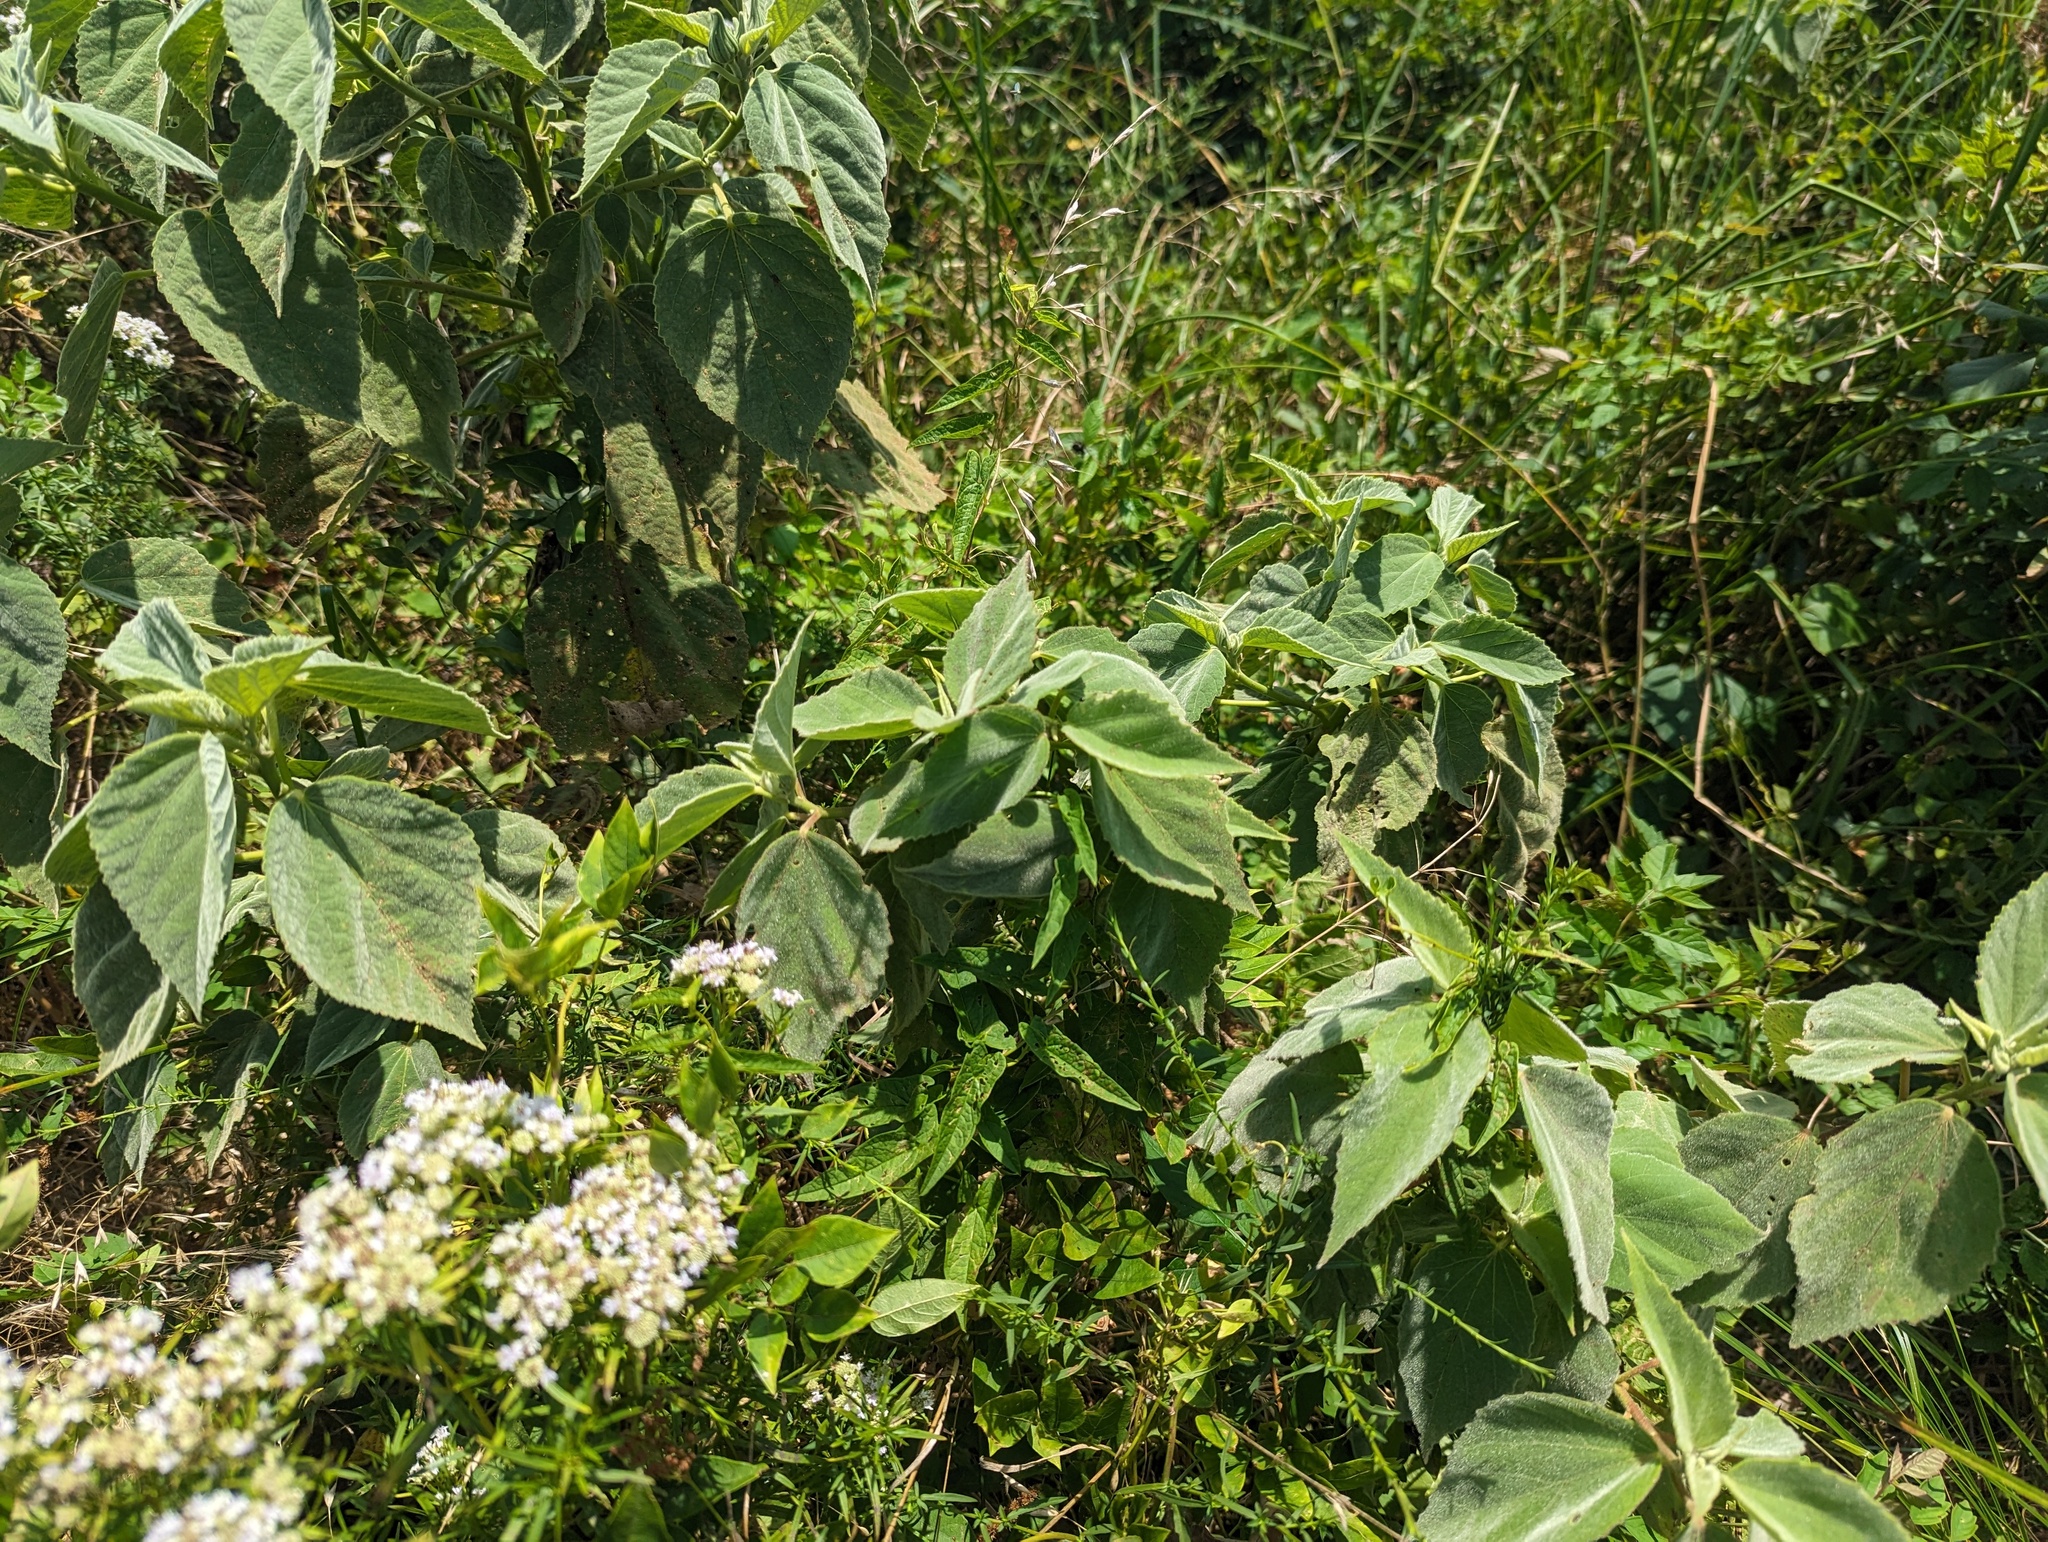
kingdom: Plantae
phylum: Tracheophyta
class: Magnoliopsida
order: Malvales
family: Malvaceae
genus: Hibiscus
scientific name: Hibiscus moscheutos
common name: Common rose-mallow
